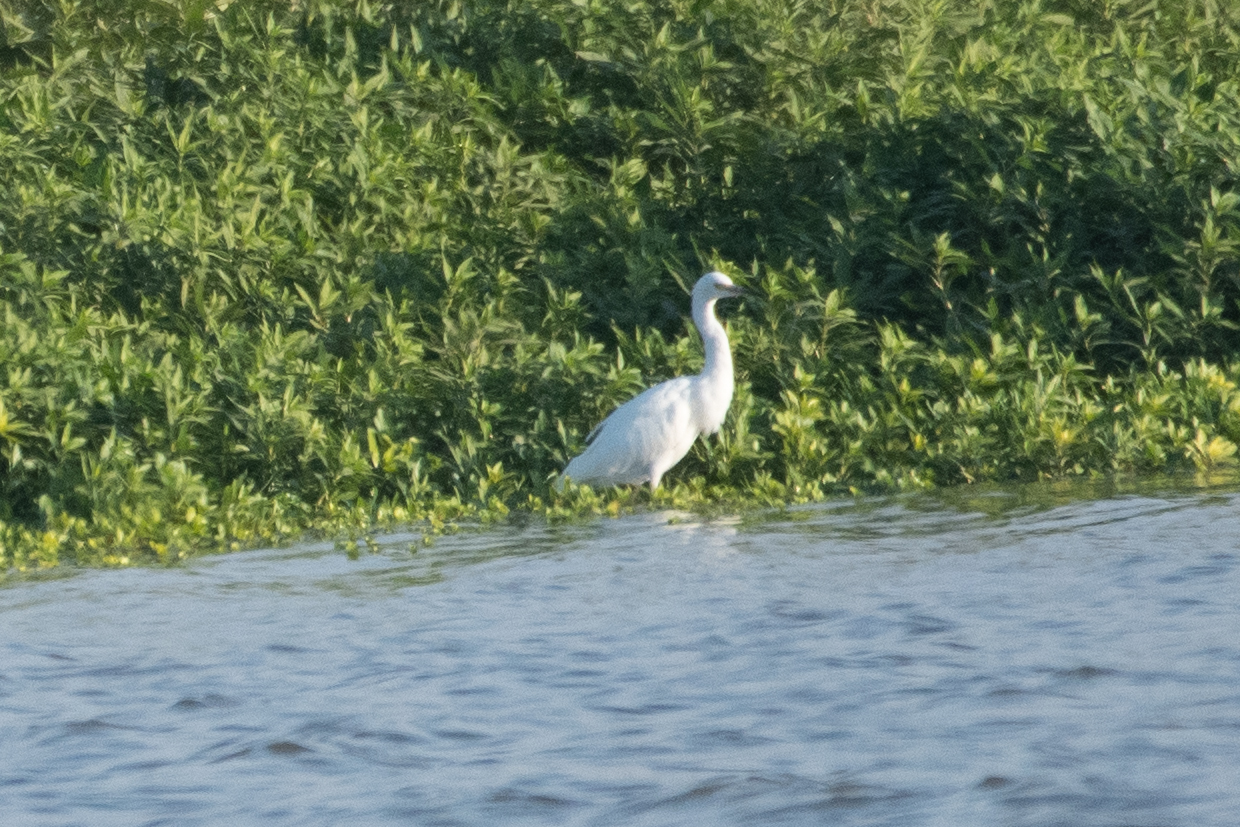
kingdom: Animalia
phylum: Chordata
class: Aves
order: Pelecaniformes
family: Ardeidae
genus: Egretta
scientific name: Egretta thula
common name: Snowy egret
